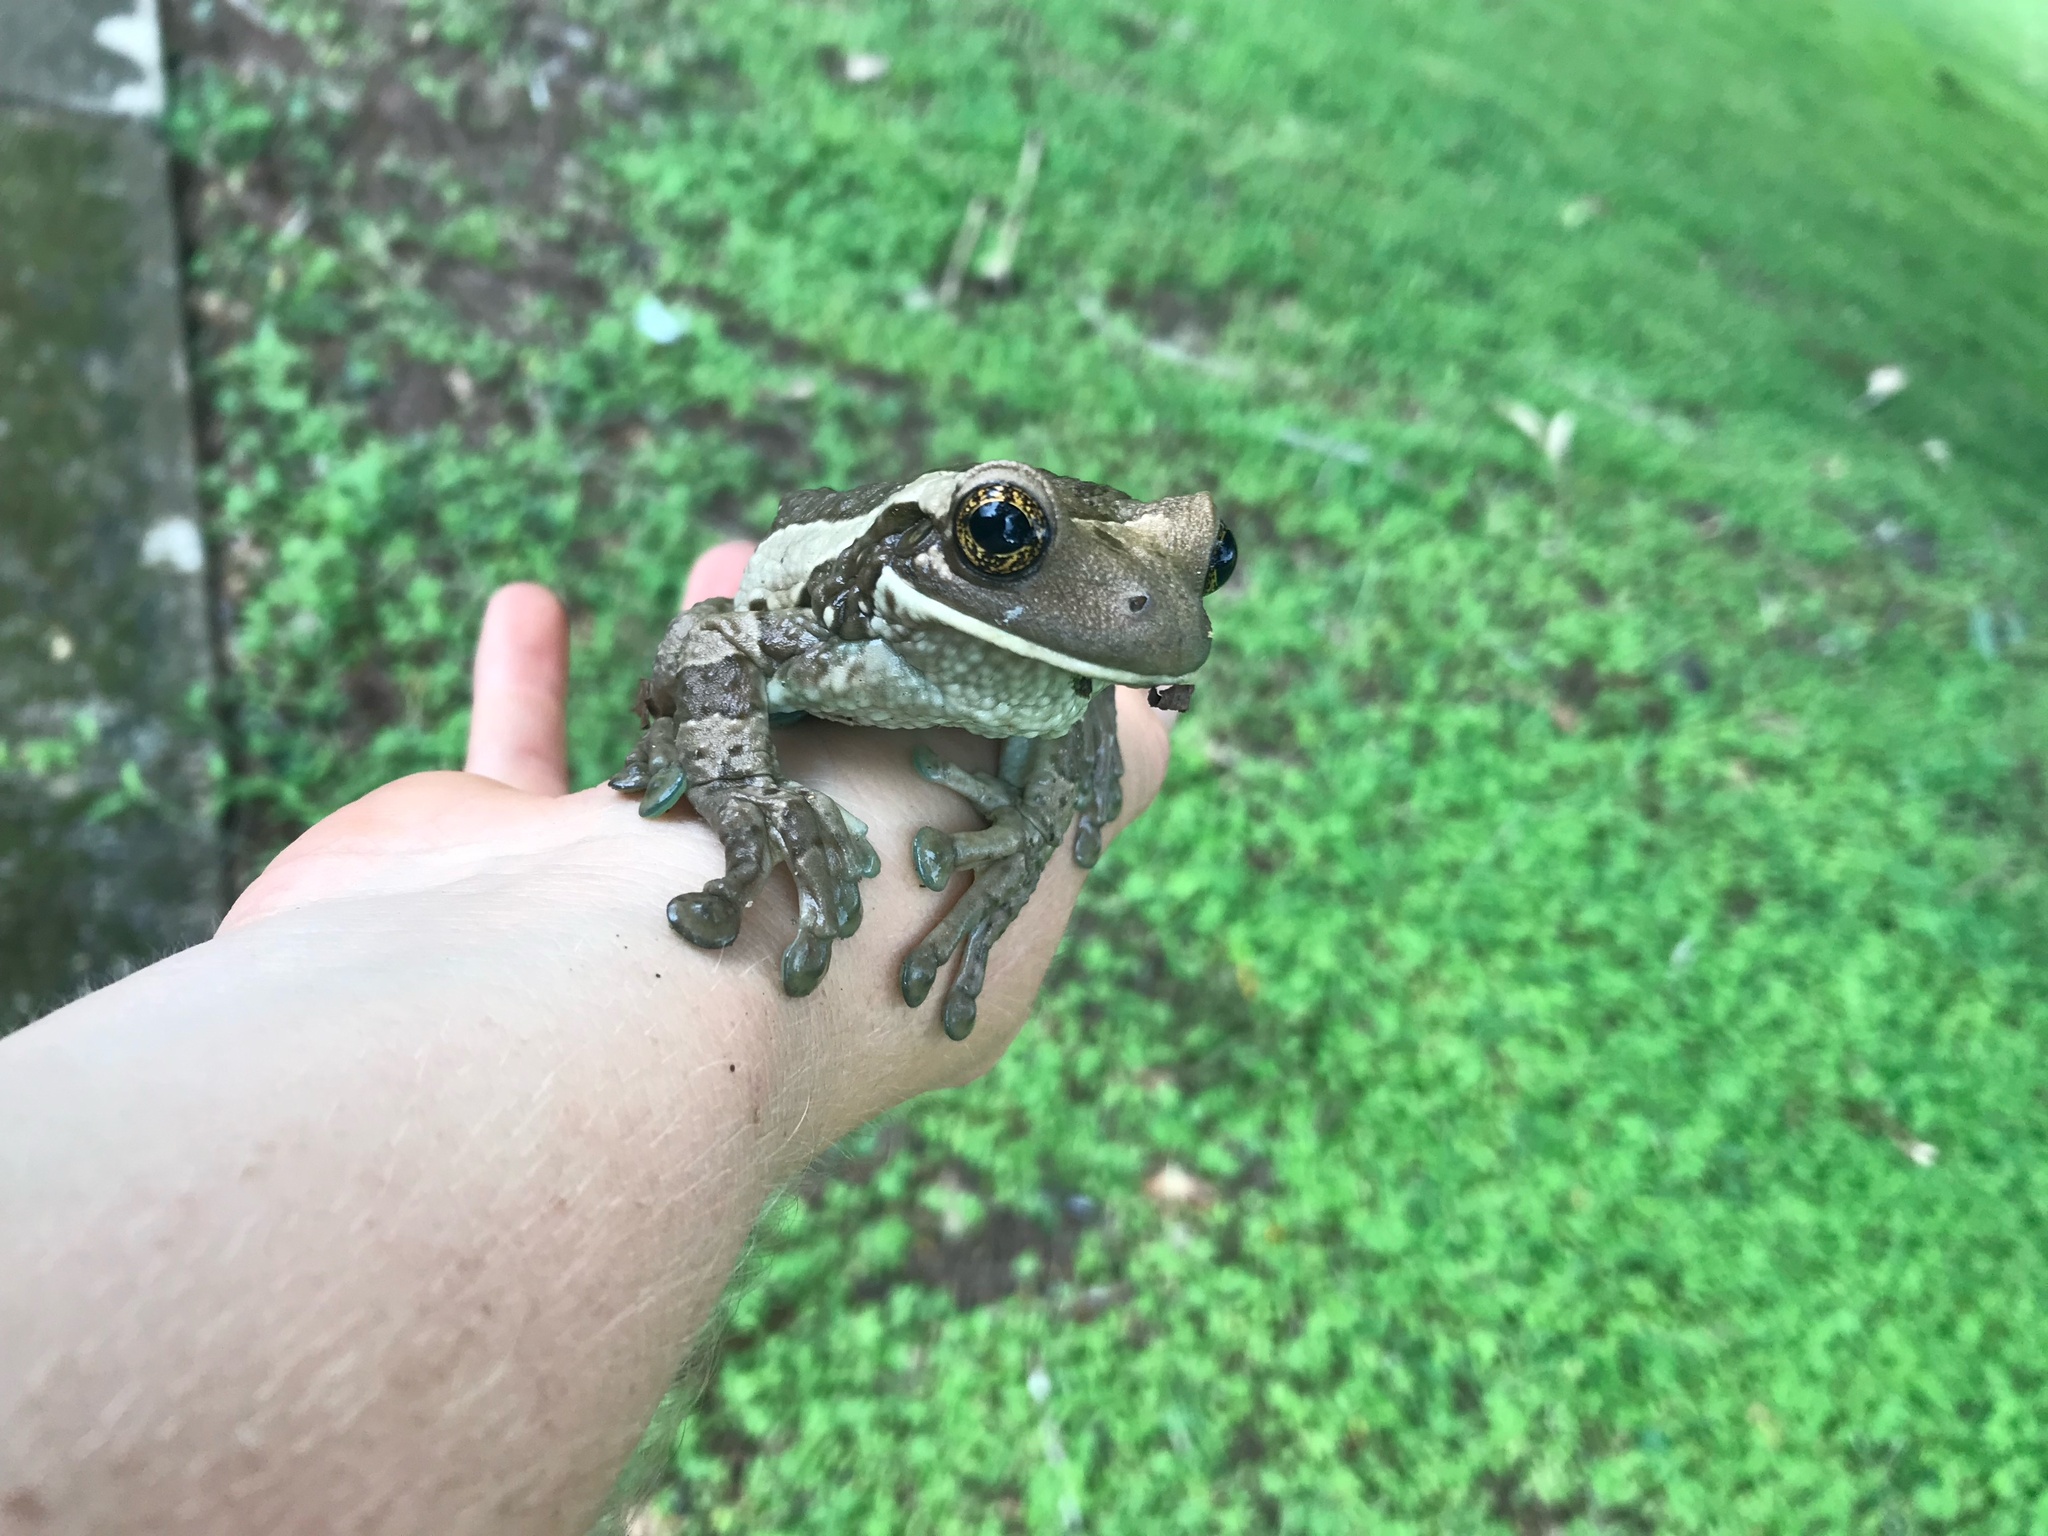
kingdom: Animalia
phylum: Chordata
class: Amphibia
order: Anura
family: Hylidae
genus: Trachycephalus
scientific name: Trachycephalus vermiculatus
